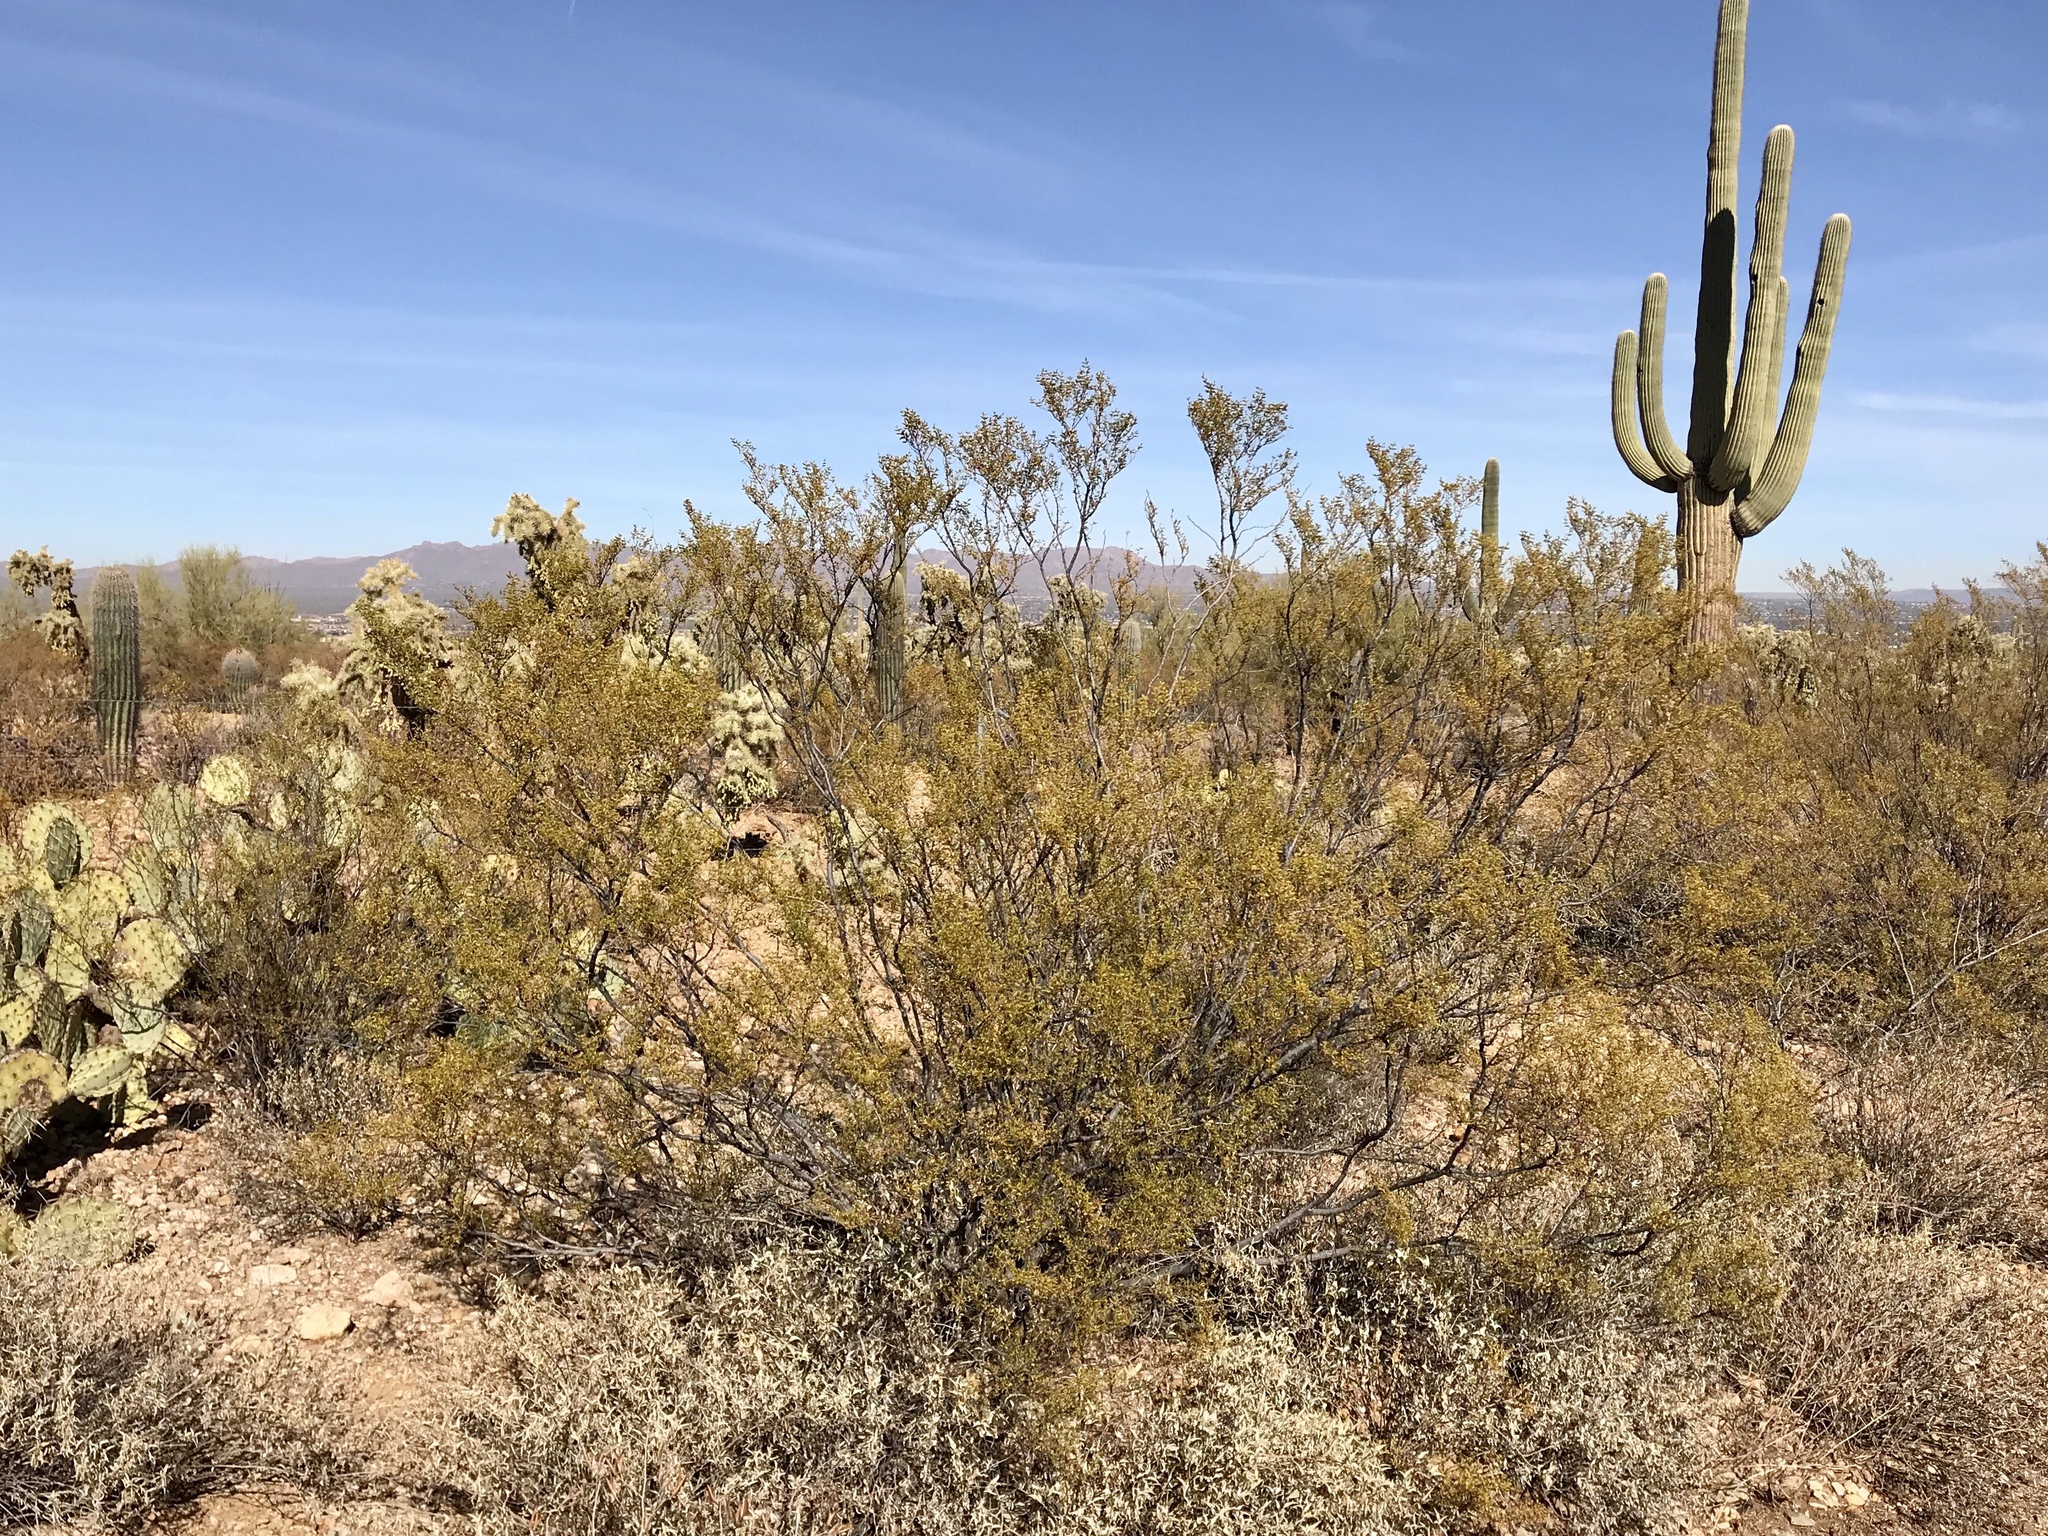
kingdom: Plantae
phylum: Tracheophyta
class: Magnoliopsida
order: Zygophyllales
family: Zygophyllaceae
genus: Larrea
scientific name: Larrea tridentata
